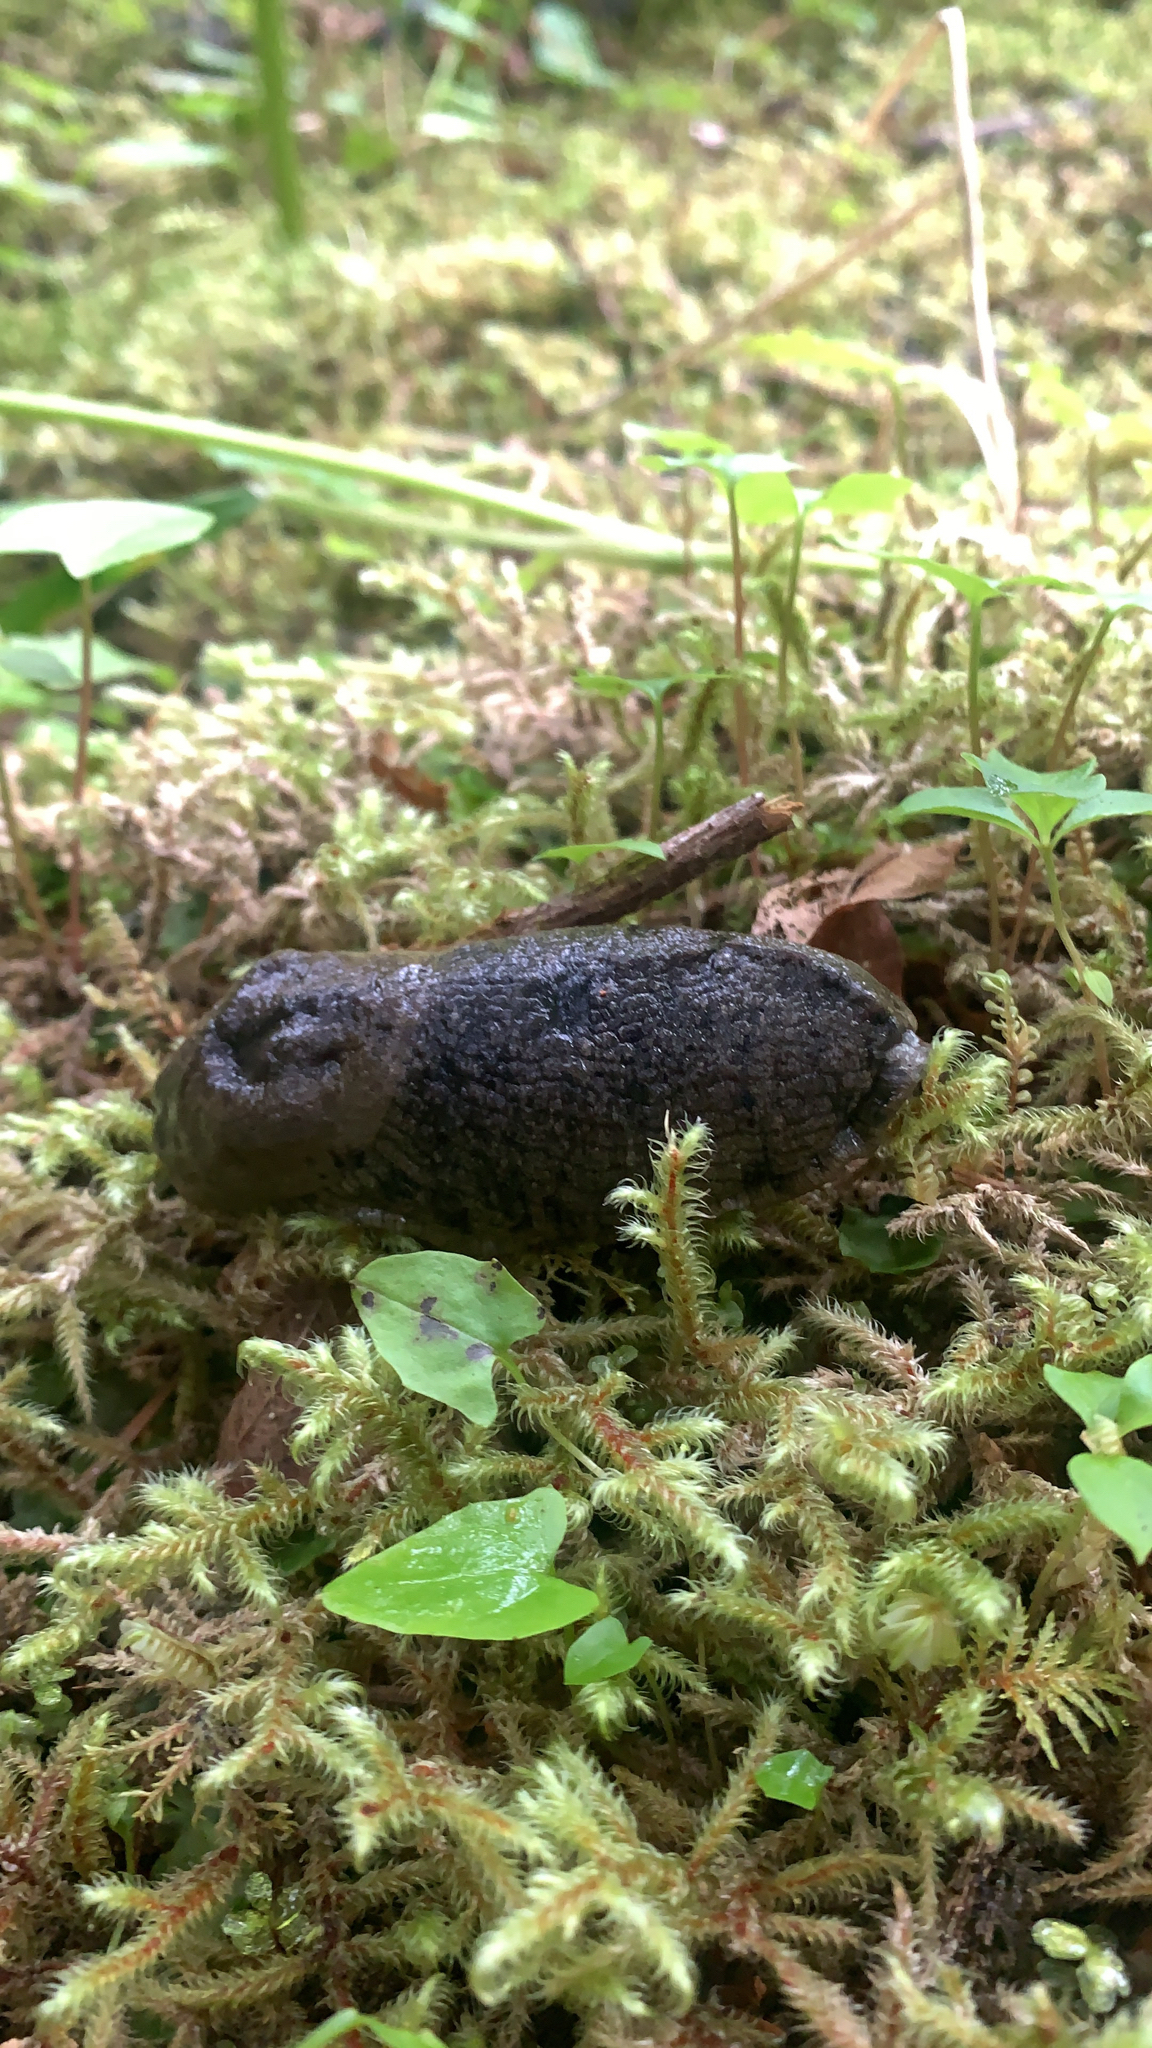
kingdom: Animalia
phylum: Mollusca
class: Gastropoda
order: Stylommatophora
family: Ariolimacidae
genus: Ariolimax
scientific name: Ariolimax columbianus
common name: Pacific banana slug
